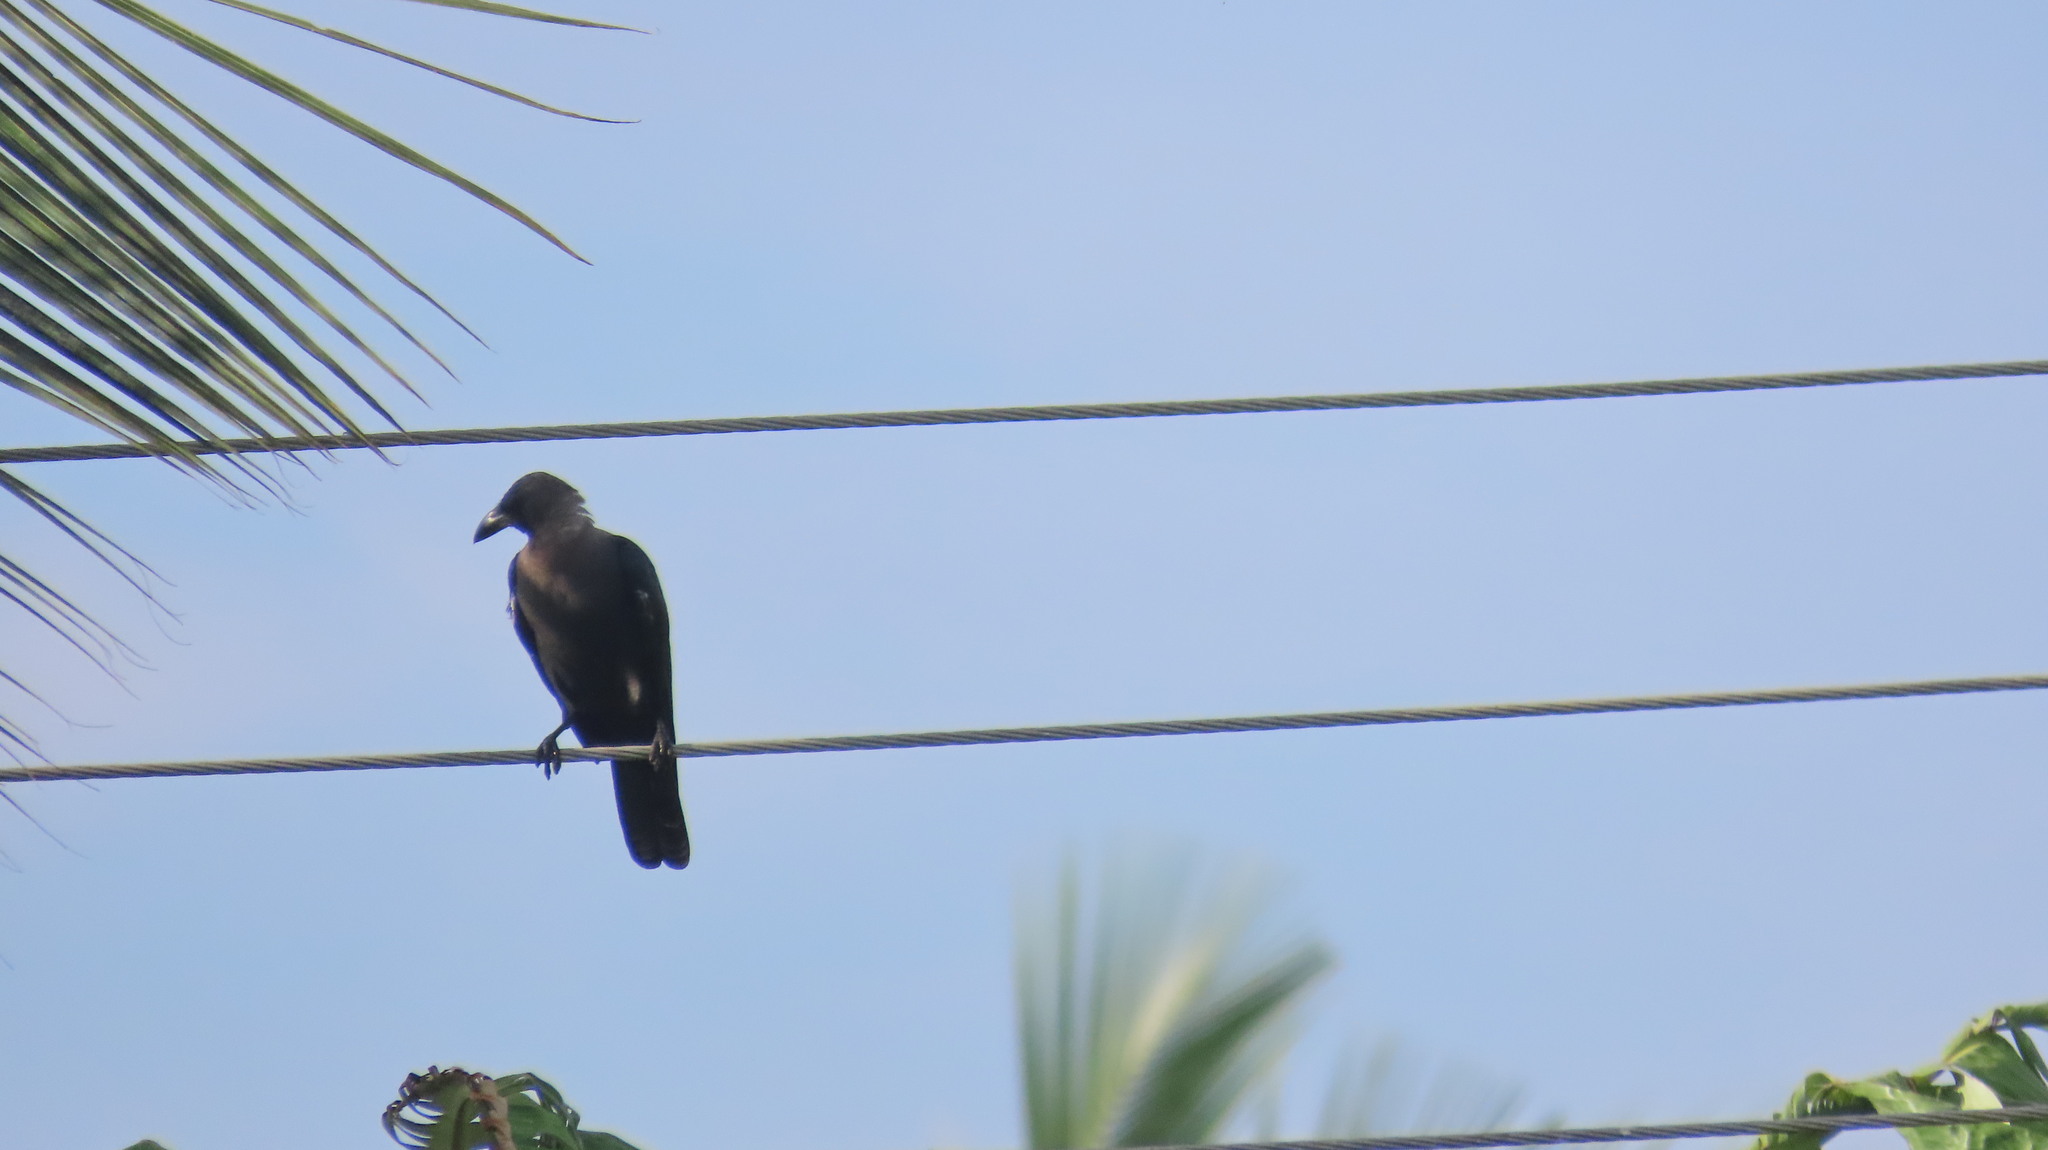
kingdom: Animalia
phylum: Chordata
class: Aves
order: Passeriformes
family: Corvidae
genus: Corvus
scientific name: Corvus splendens
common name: House crow
